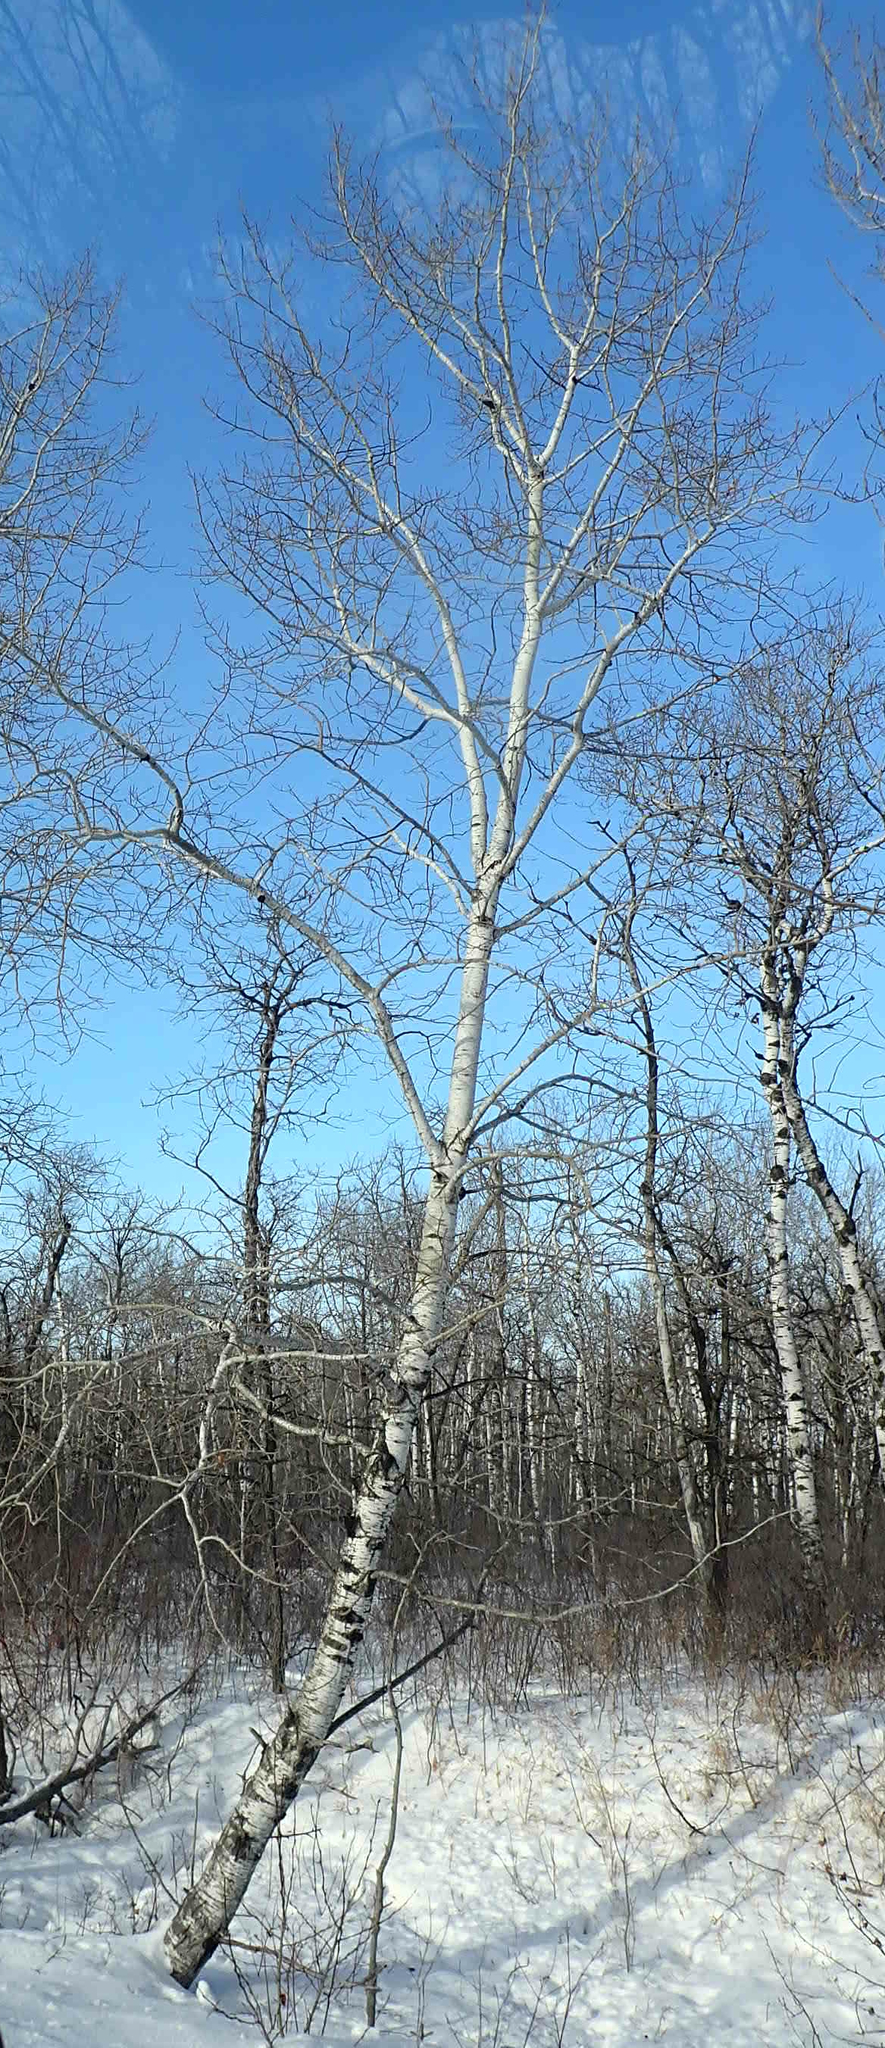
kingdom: Plantae
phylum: Tracheophyta
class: Magnoliopsida
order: Malpighiales
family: Salicaceae
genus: Populus
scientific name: Populus tremuloides
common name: Quaking aspen
